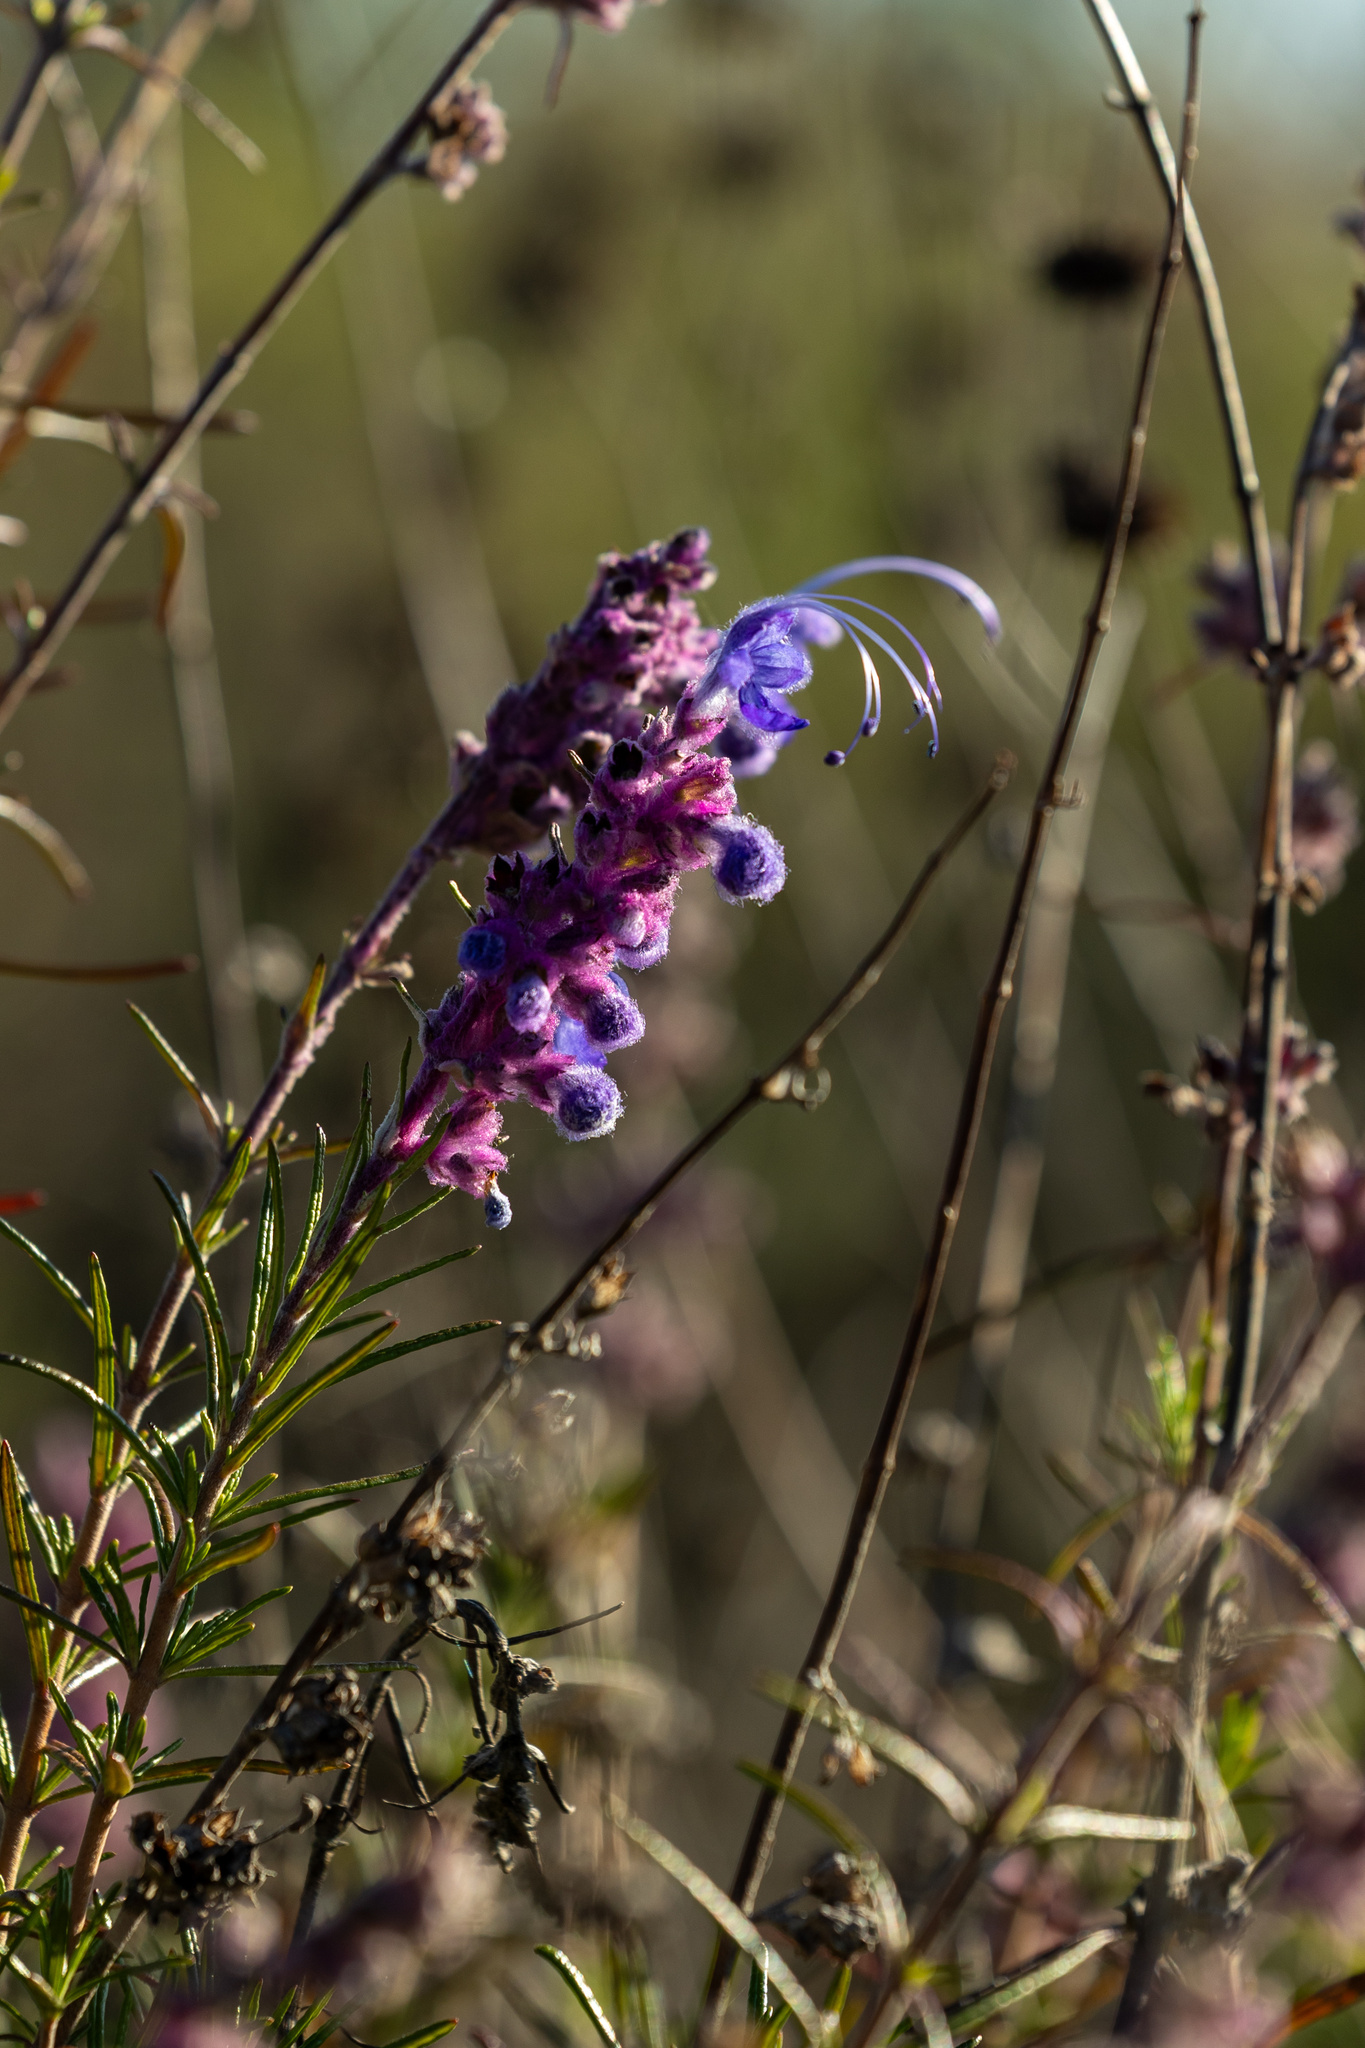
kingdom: Plantae
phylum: Tracheophyta
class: Magnoliopsida
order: Lamiales
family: Lamiaceae
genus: Trichostema
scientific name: Trichostema lanatum
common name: Woolly bluecurls
